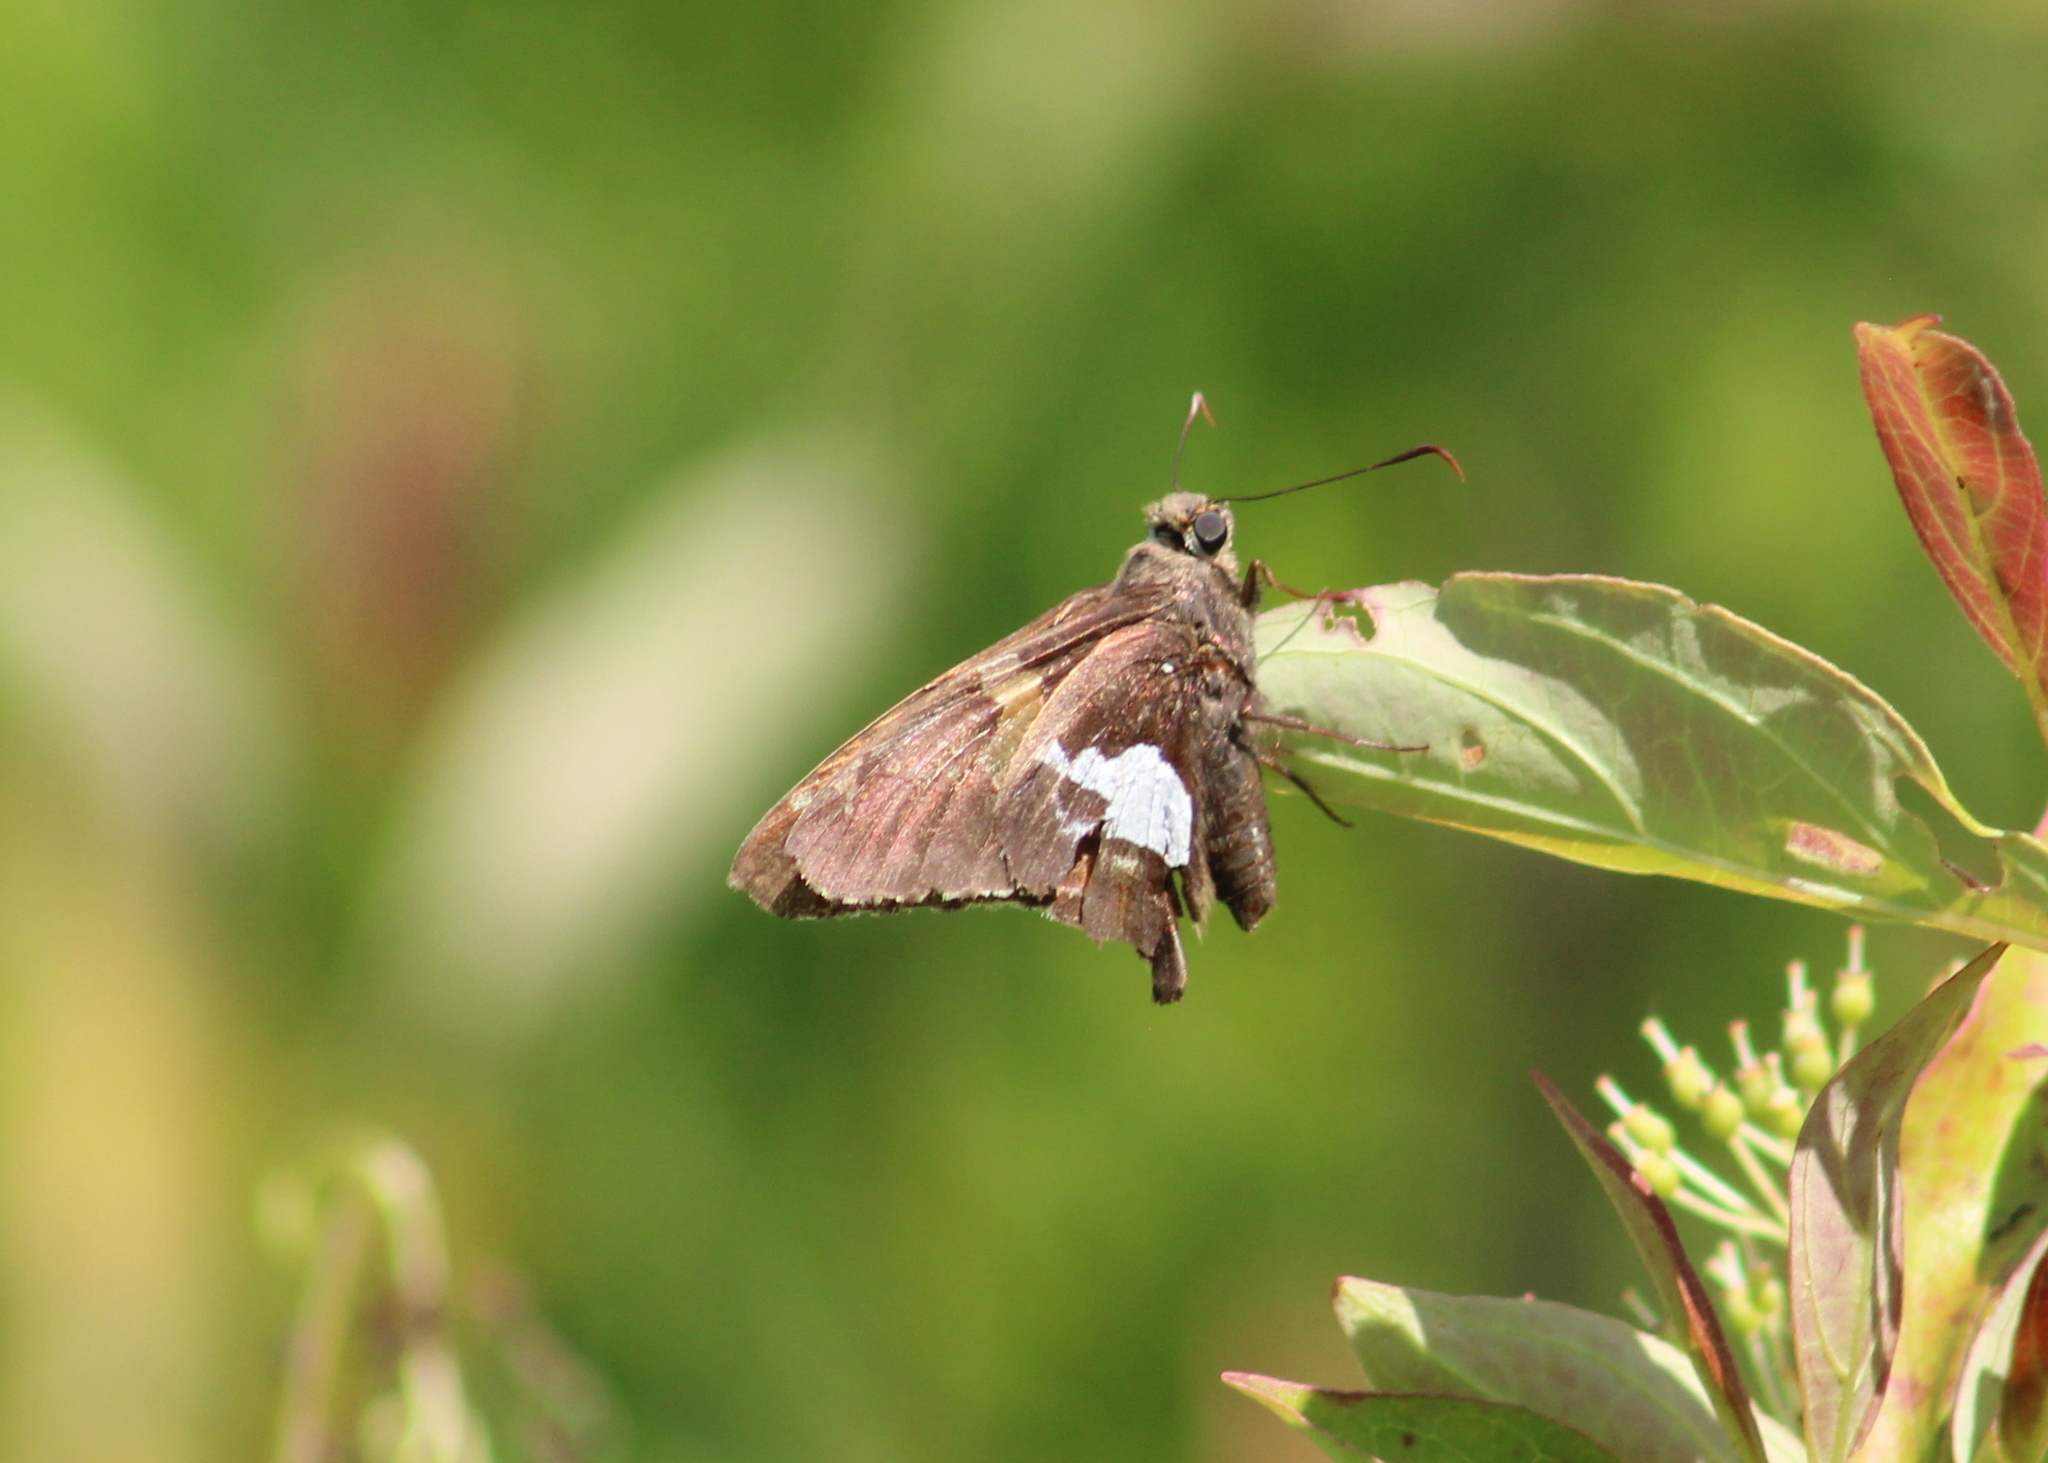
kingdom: Animalia
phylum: Arthropoda
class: Insecta
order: Lepidoptera
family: Hesperiidae
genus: Epargyreus
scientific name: Epargyreus clarus
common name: Silver-spotted skipper
